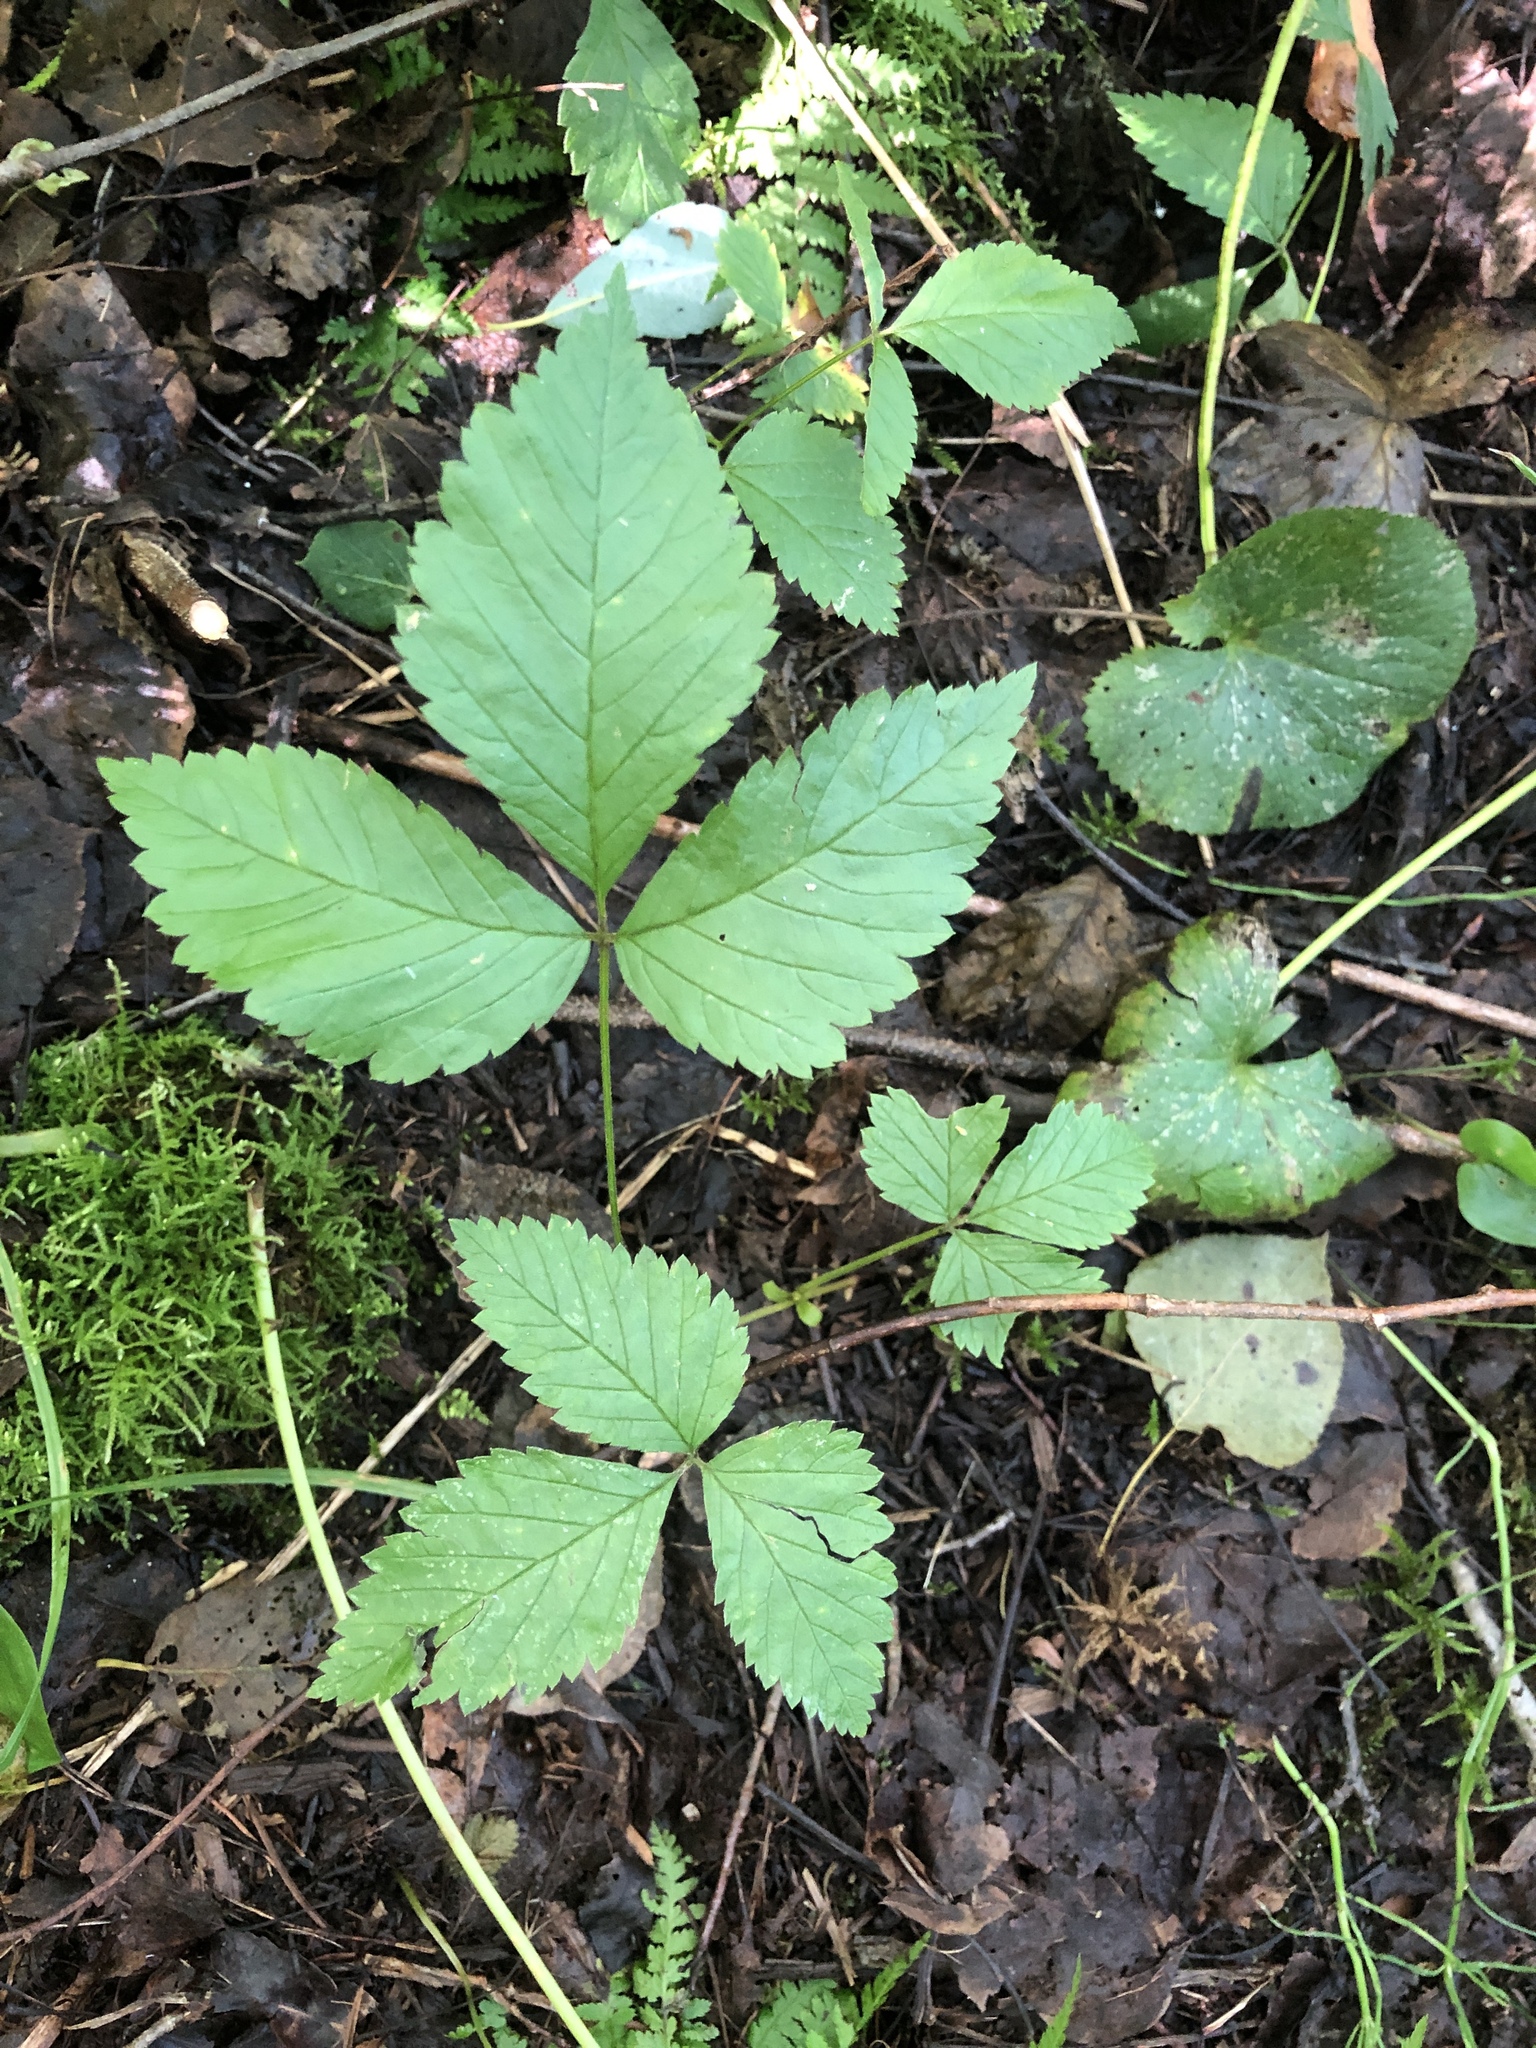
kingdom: Plantae
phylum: Tracheophyta
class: Magnoliopsida
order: Rosales
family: Rosaceae
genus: Rubus
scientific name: Rubus pubescens
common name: Dwarf raspberry
